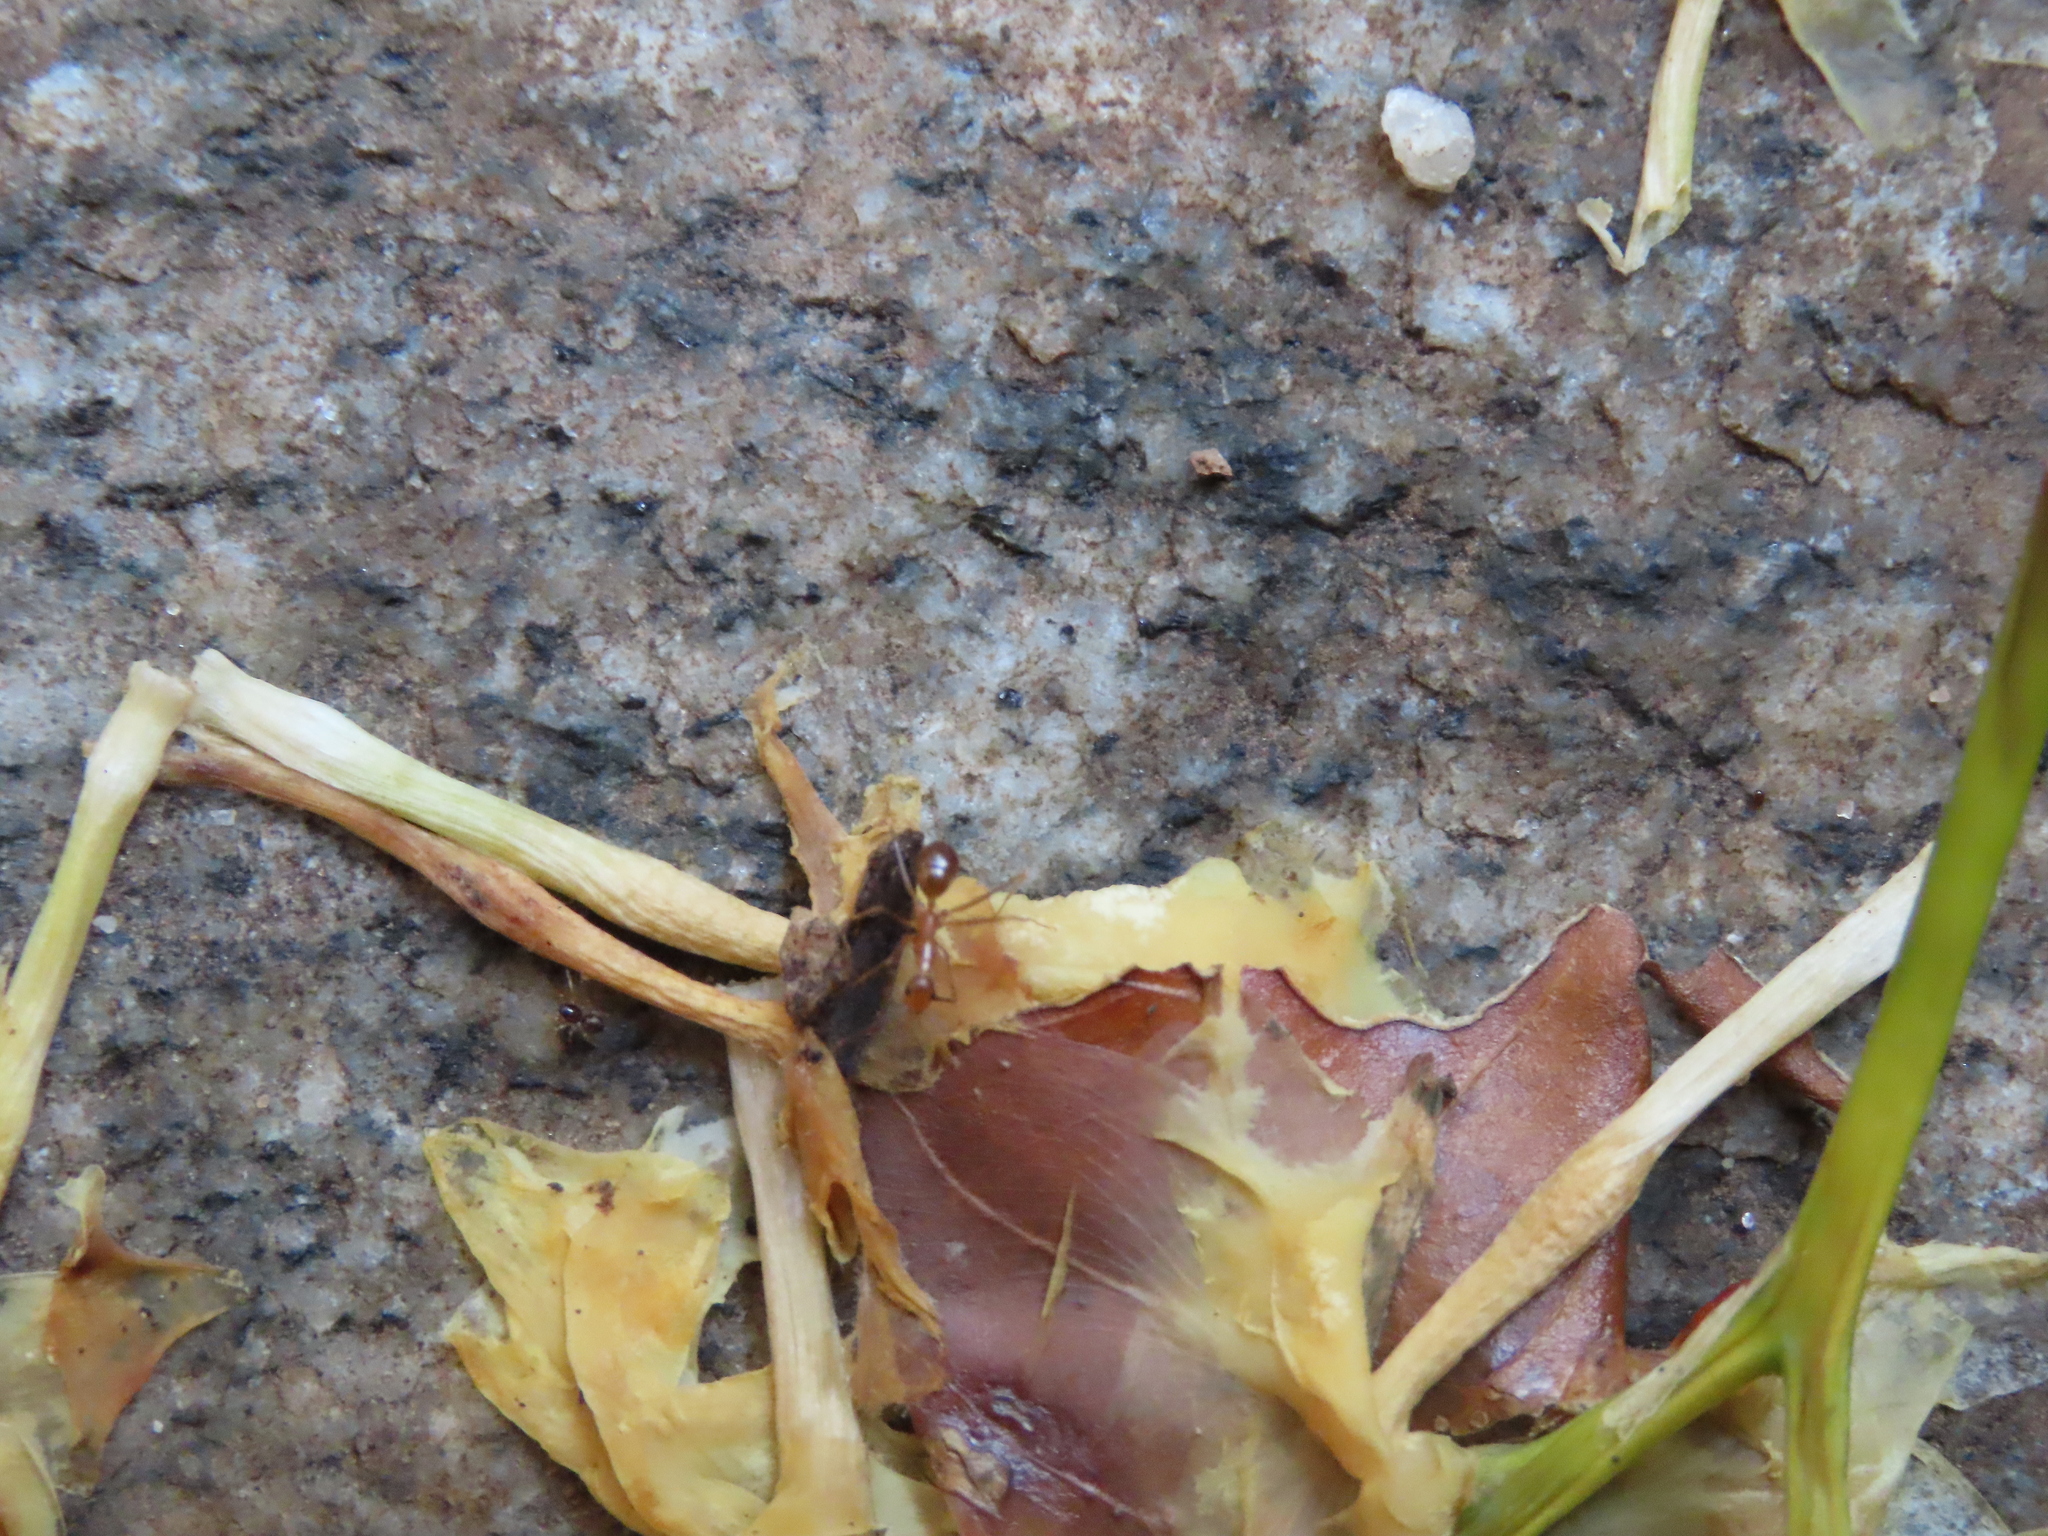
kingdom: Animalia
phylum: Arthropoda
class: Insecta
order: Hymenoptera
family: Formicidae
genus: Anoplolepis
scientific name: Anoplolepis gracilipes
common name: Ant
